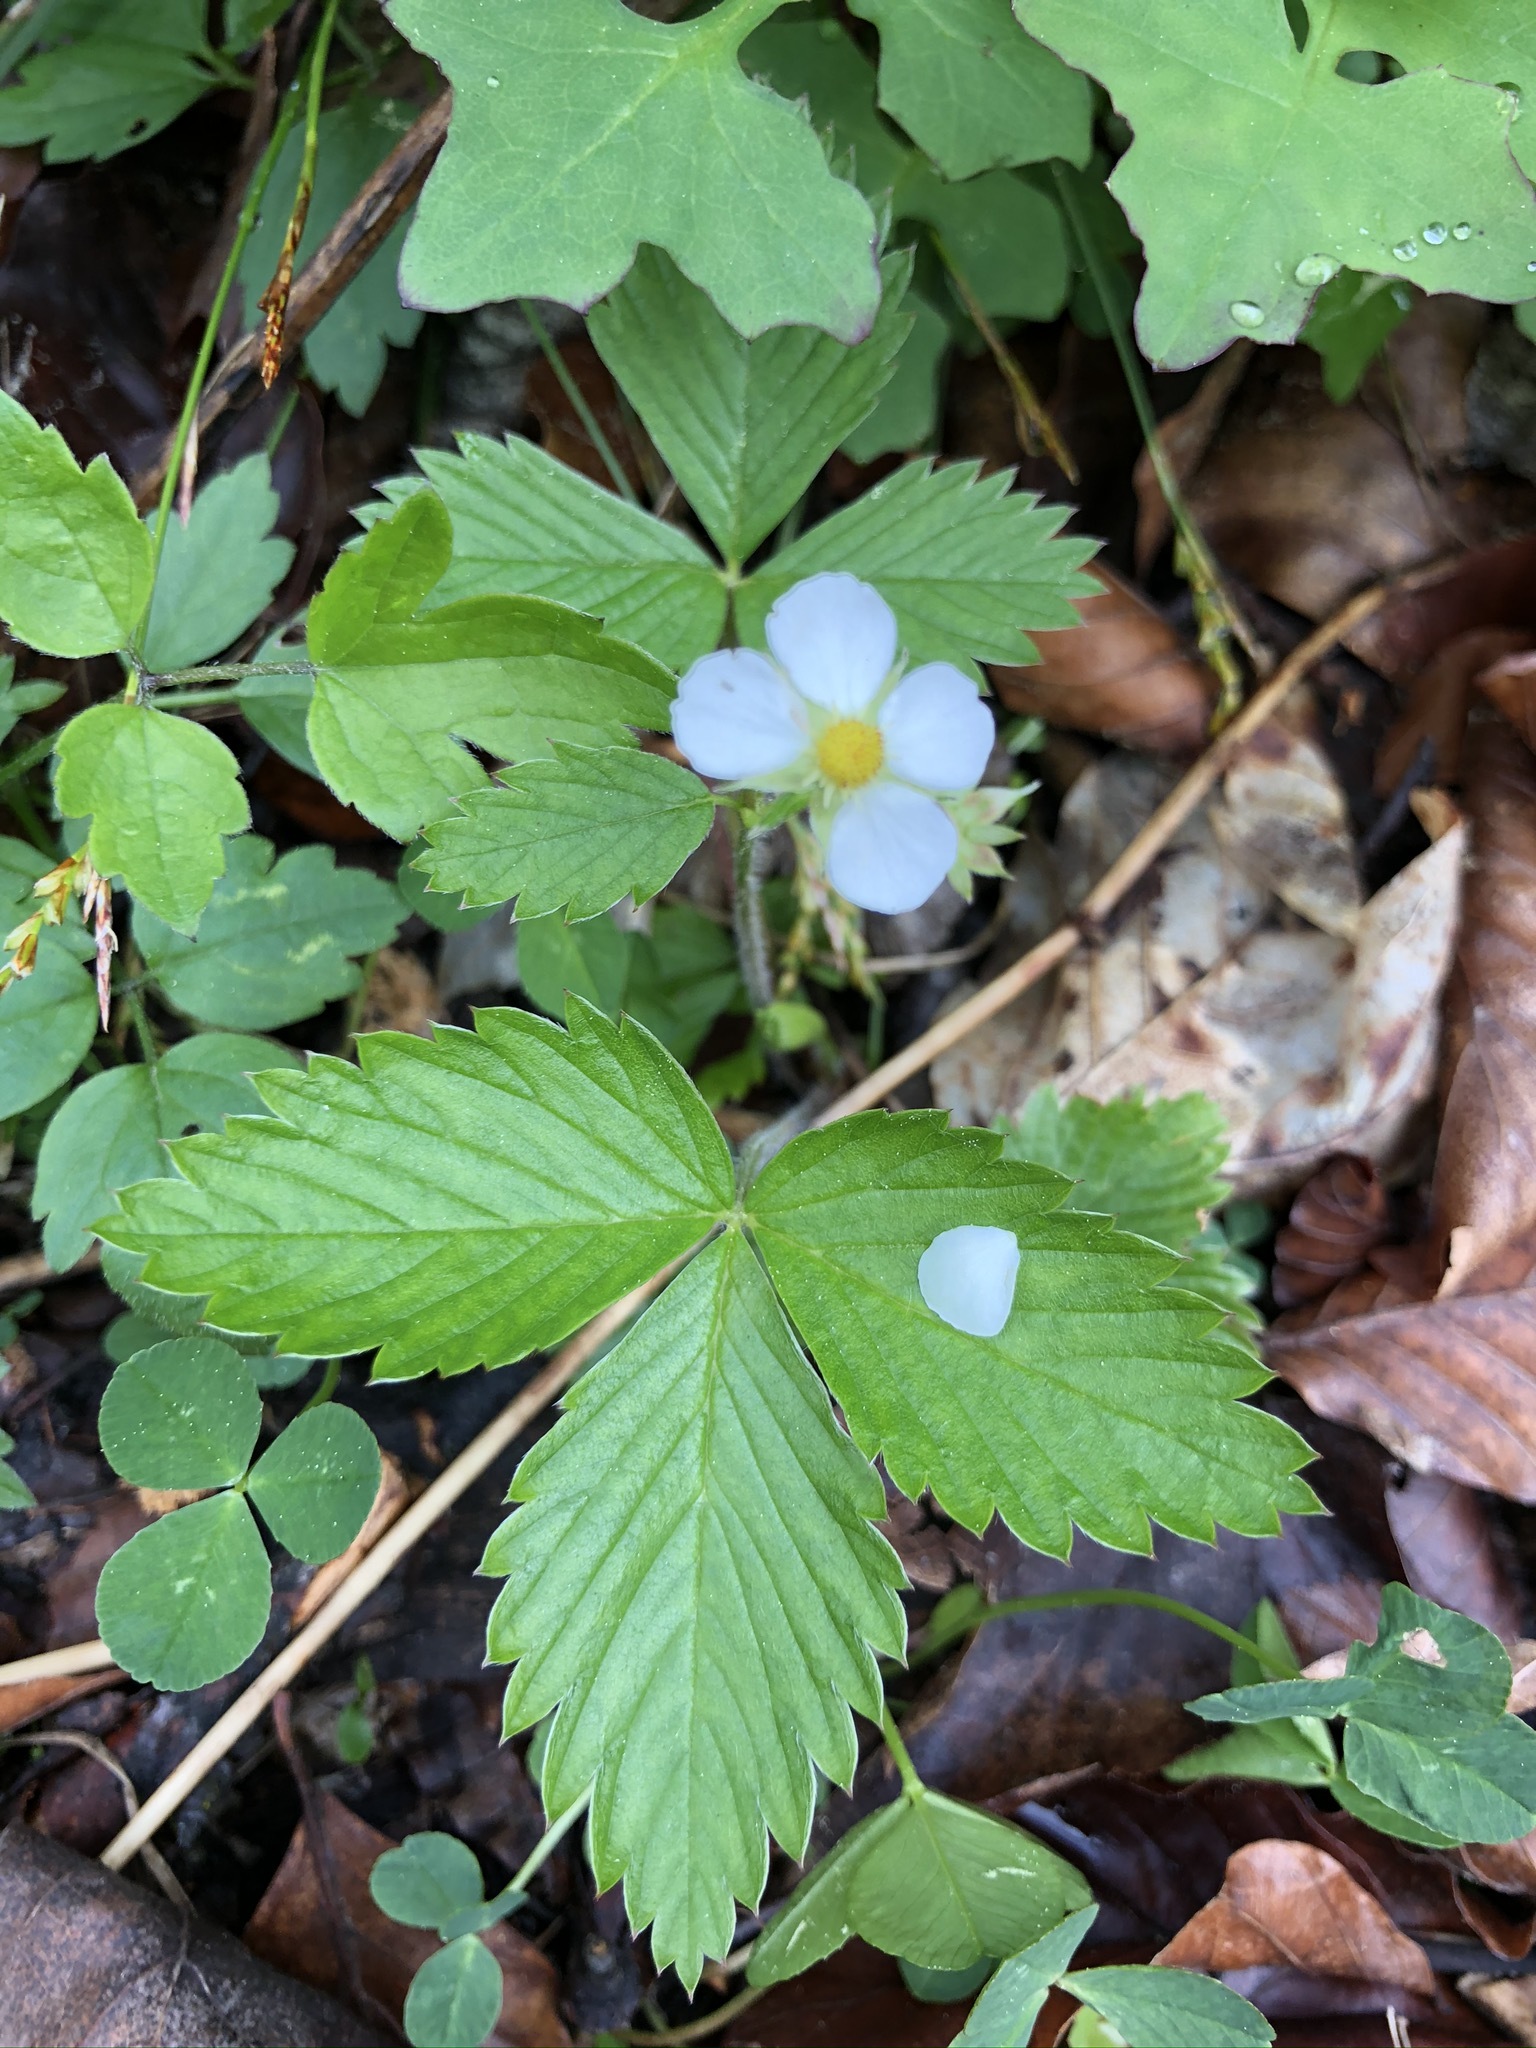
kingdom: Plantae
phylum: Tracheophyta
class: Magnoliopsida
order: Rosales
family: Rosaceae
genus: Fragaria
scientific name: Fragaria vesca
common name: Wild strawberry
